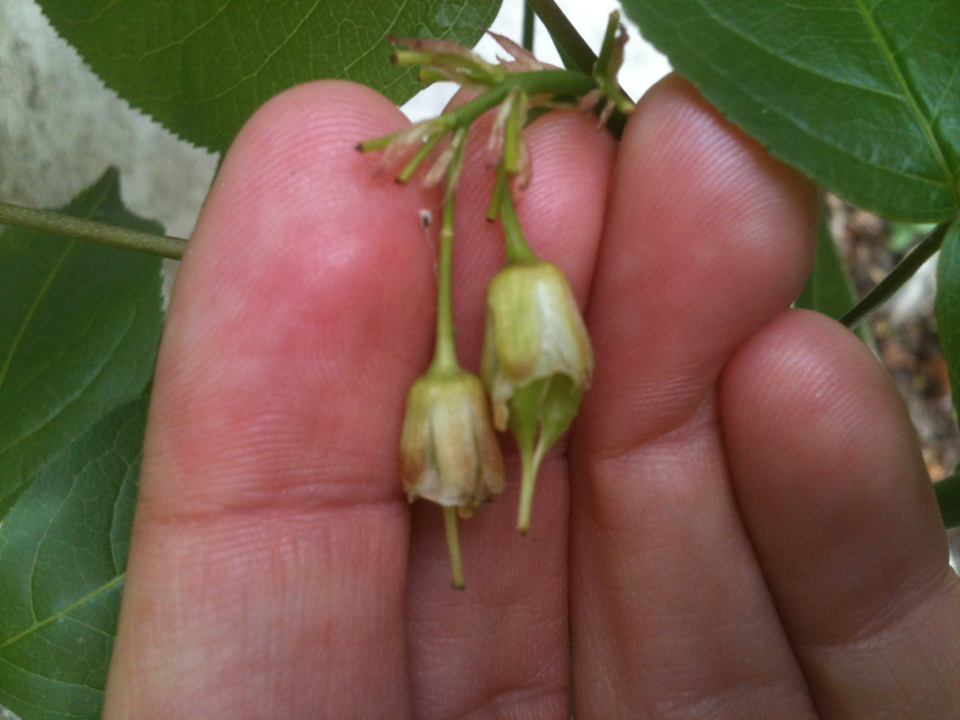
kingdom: Plantae
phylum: Tracheophyta
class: Magnoliopsida
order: Crossosomatales
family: Staphyleaceae
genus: Staphylea
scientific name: Staphylea trifolia
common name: American bladdernut
